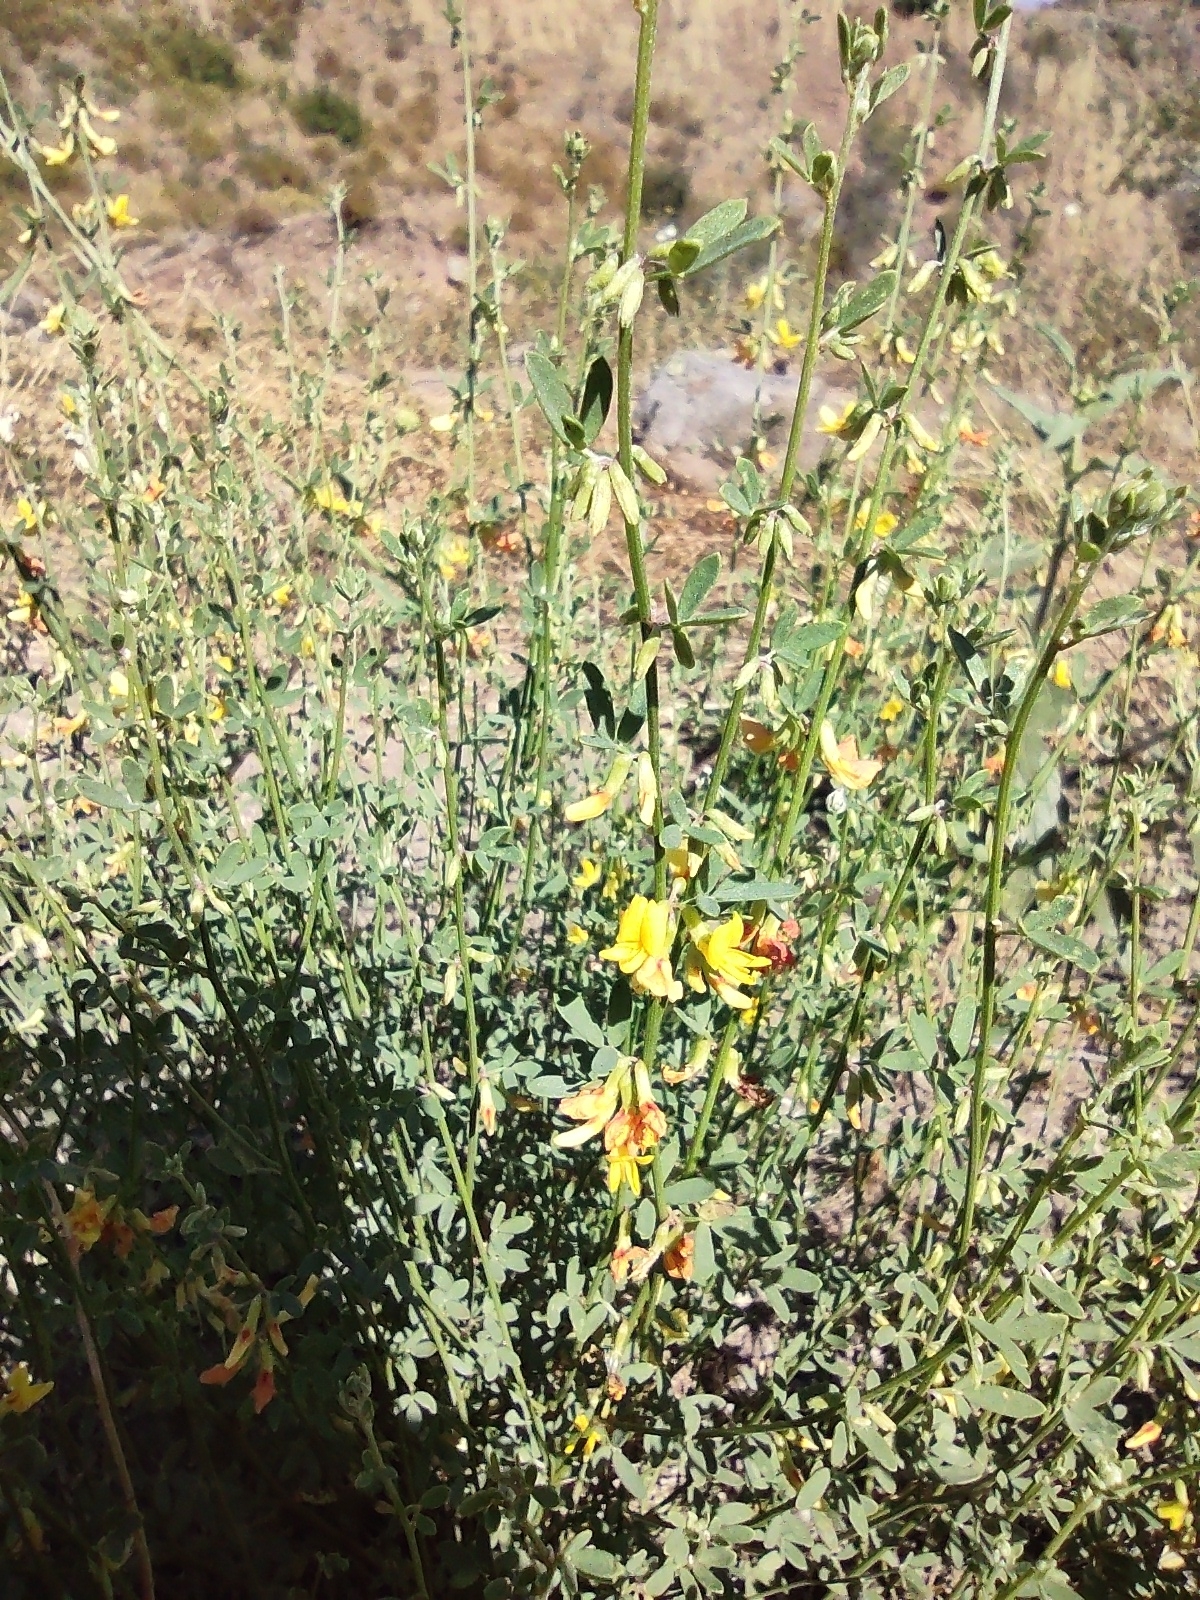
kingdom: Plantae
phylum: Tracheophyta
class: Magnoliopsida
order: Fabales
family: Fabaceae
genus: Acmispon
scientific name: Acmispon glaber
